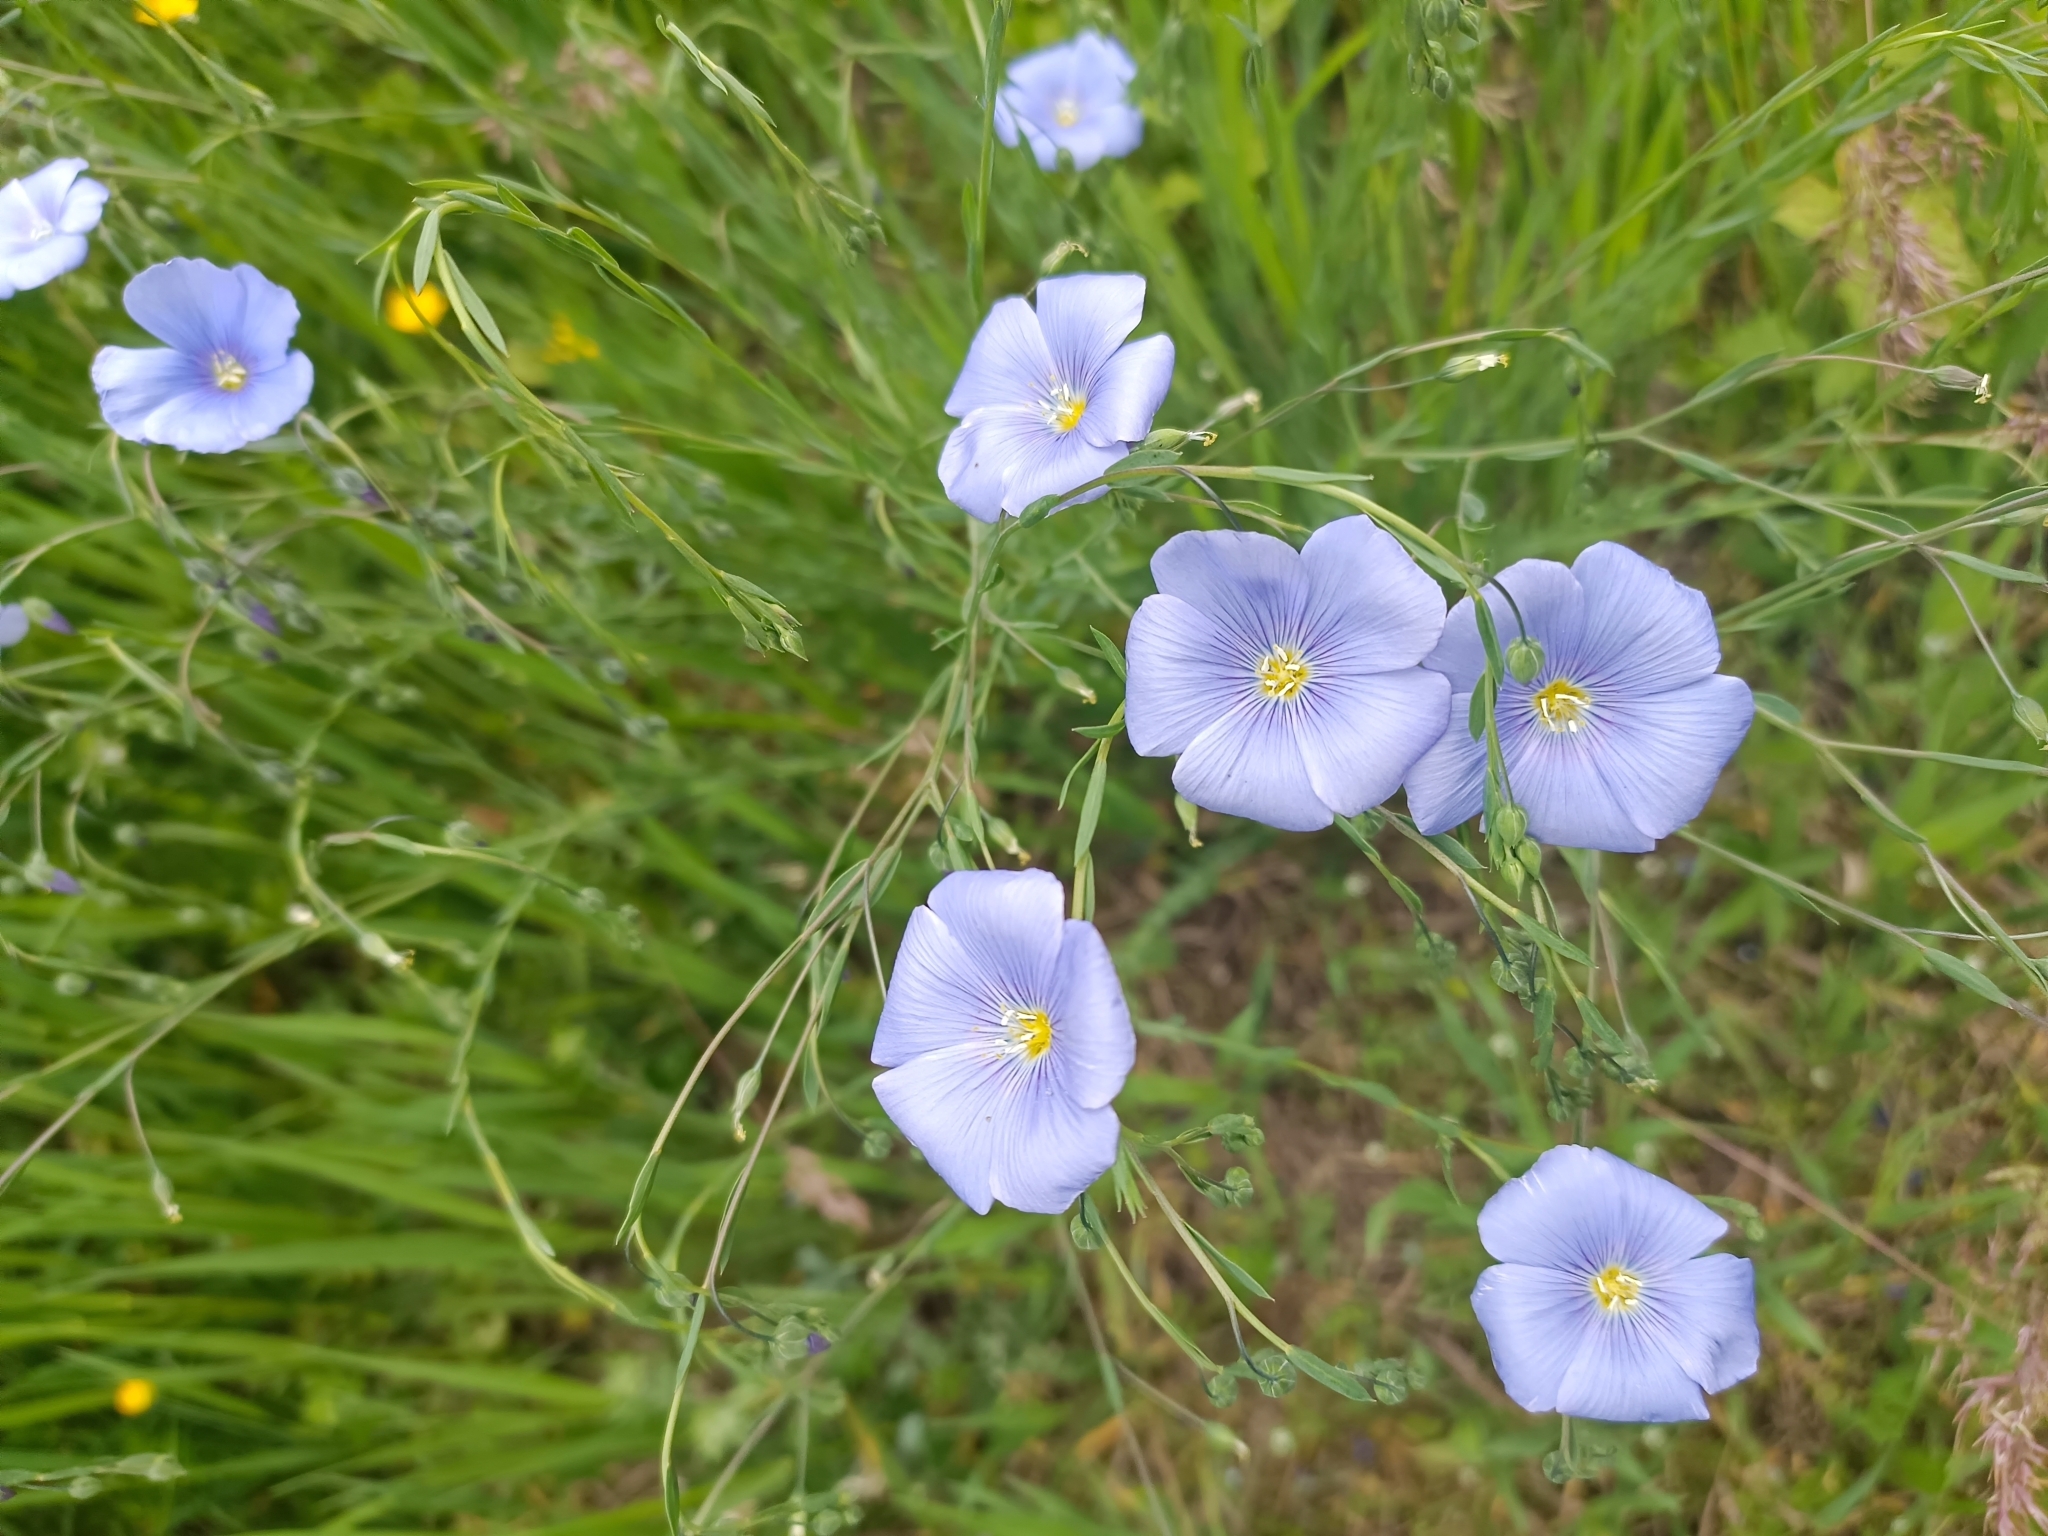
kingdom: Plantae
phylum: Tracheophyta
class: Magnoliopsida
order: Malpighiales
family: Linaceae
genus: Linum
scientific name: Linum austriacum
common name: Austrian flax
